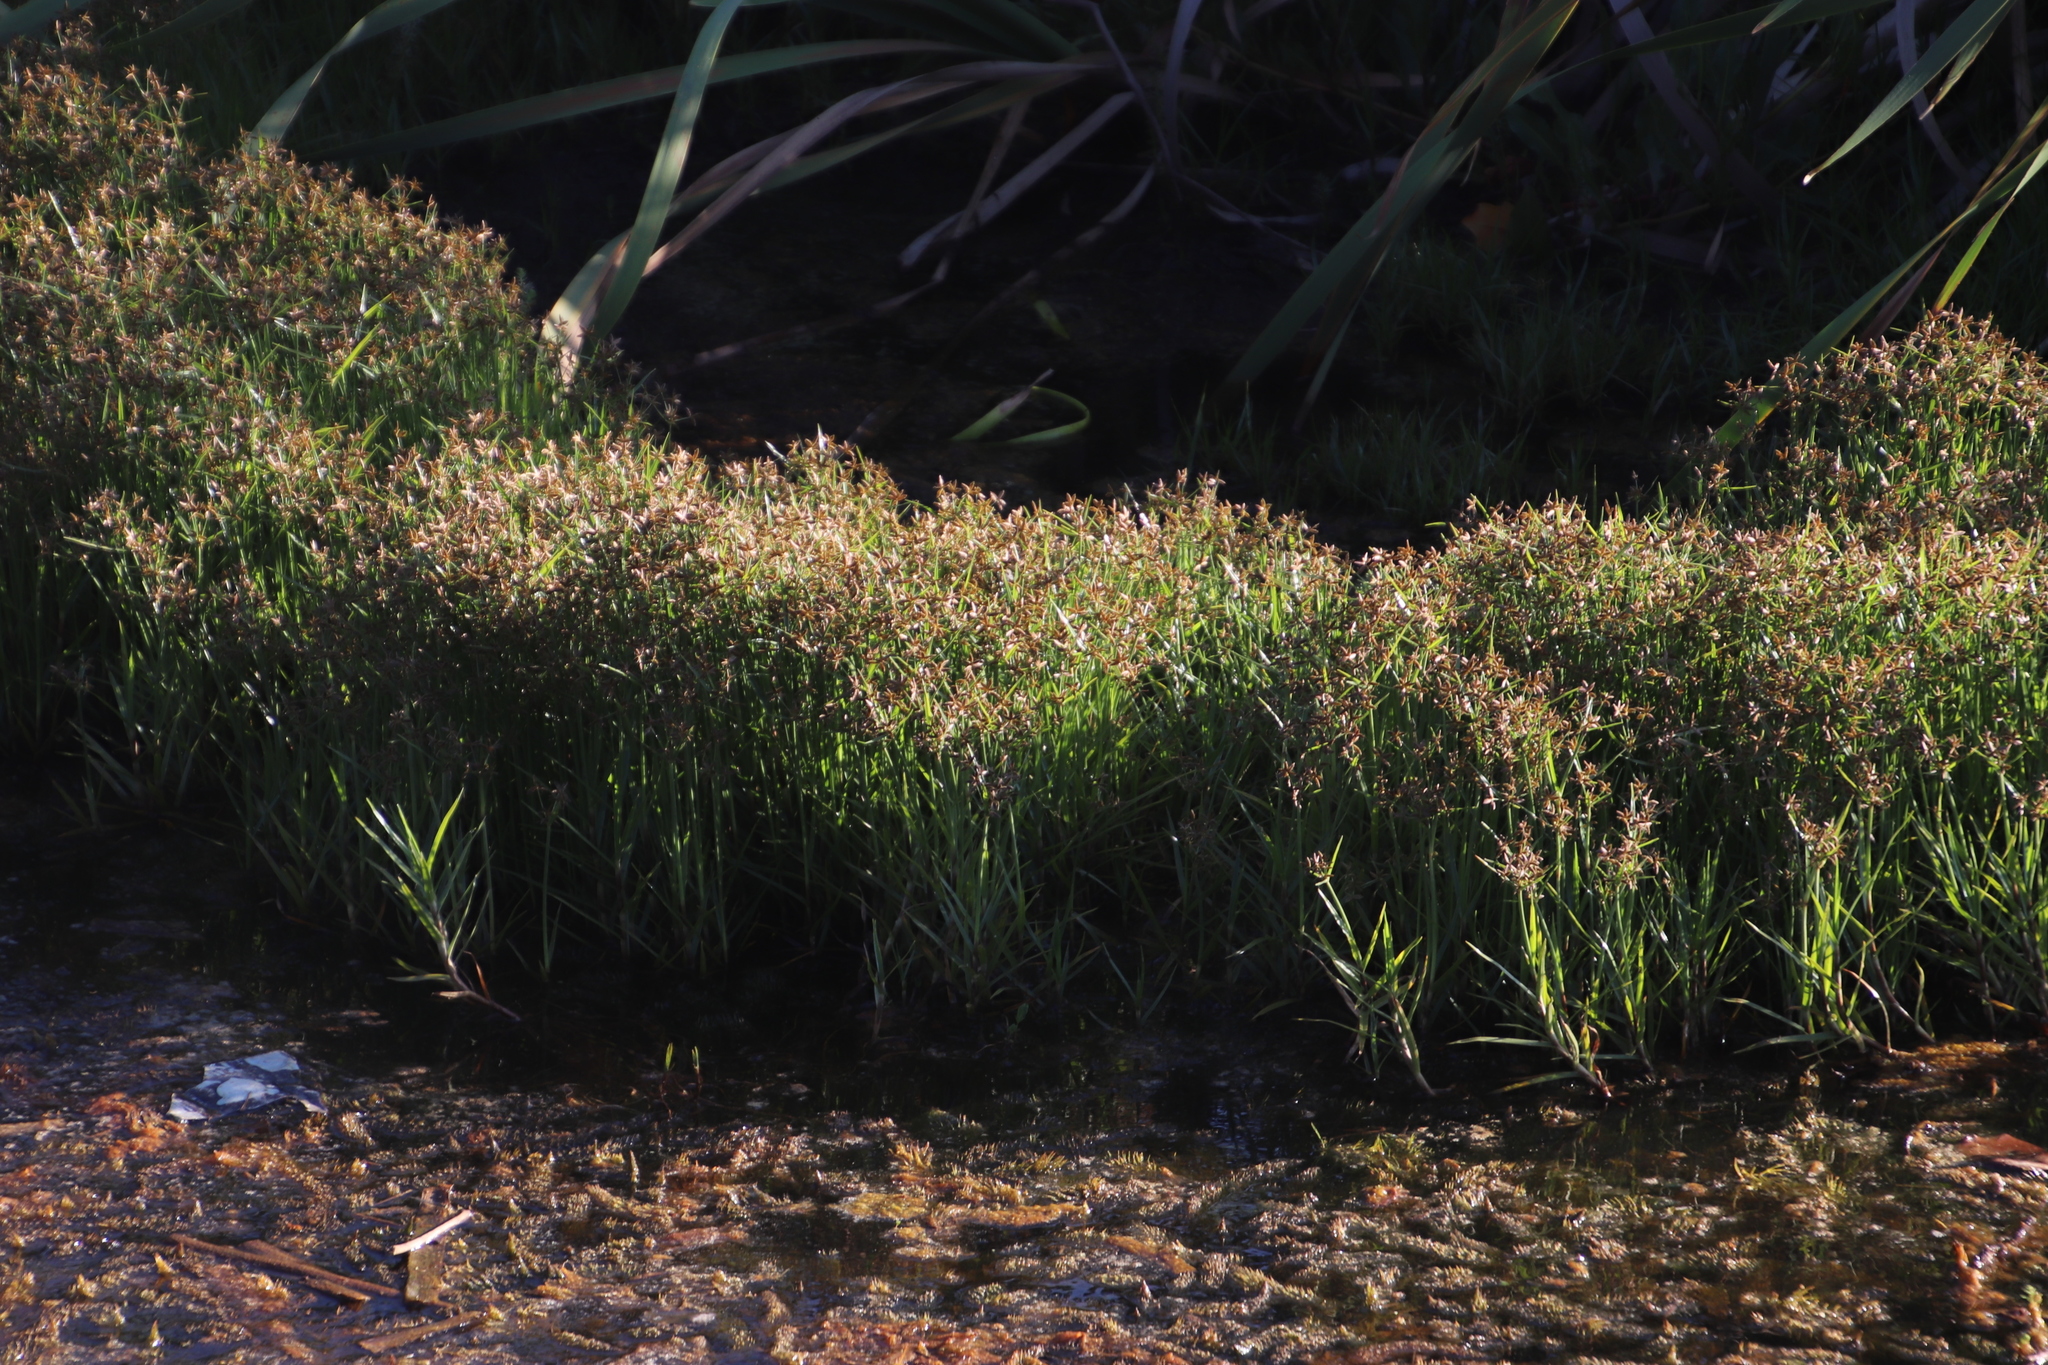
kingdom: Plantae
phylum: Tracheophyta
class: Liliopsida
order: Poales
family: Cyperaceae
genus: Cyperus
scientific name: Cyperus nitidus
